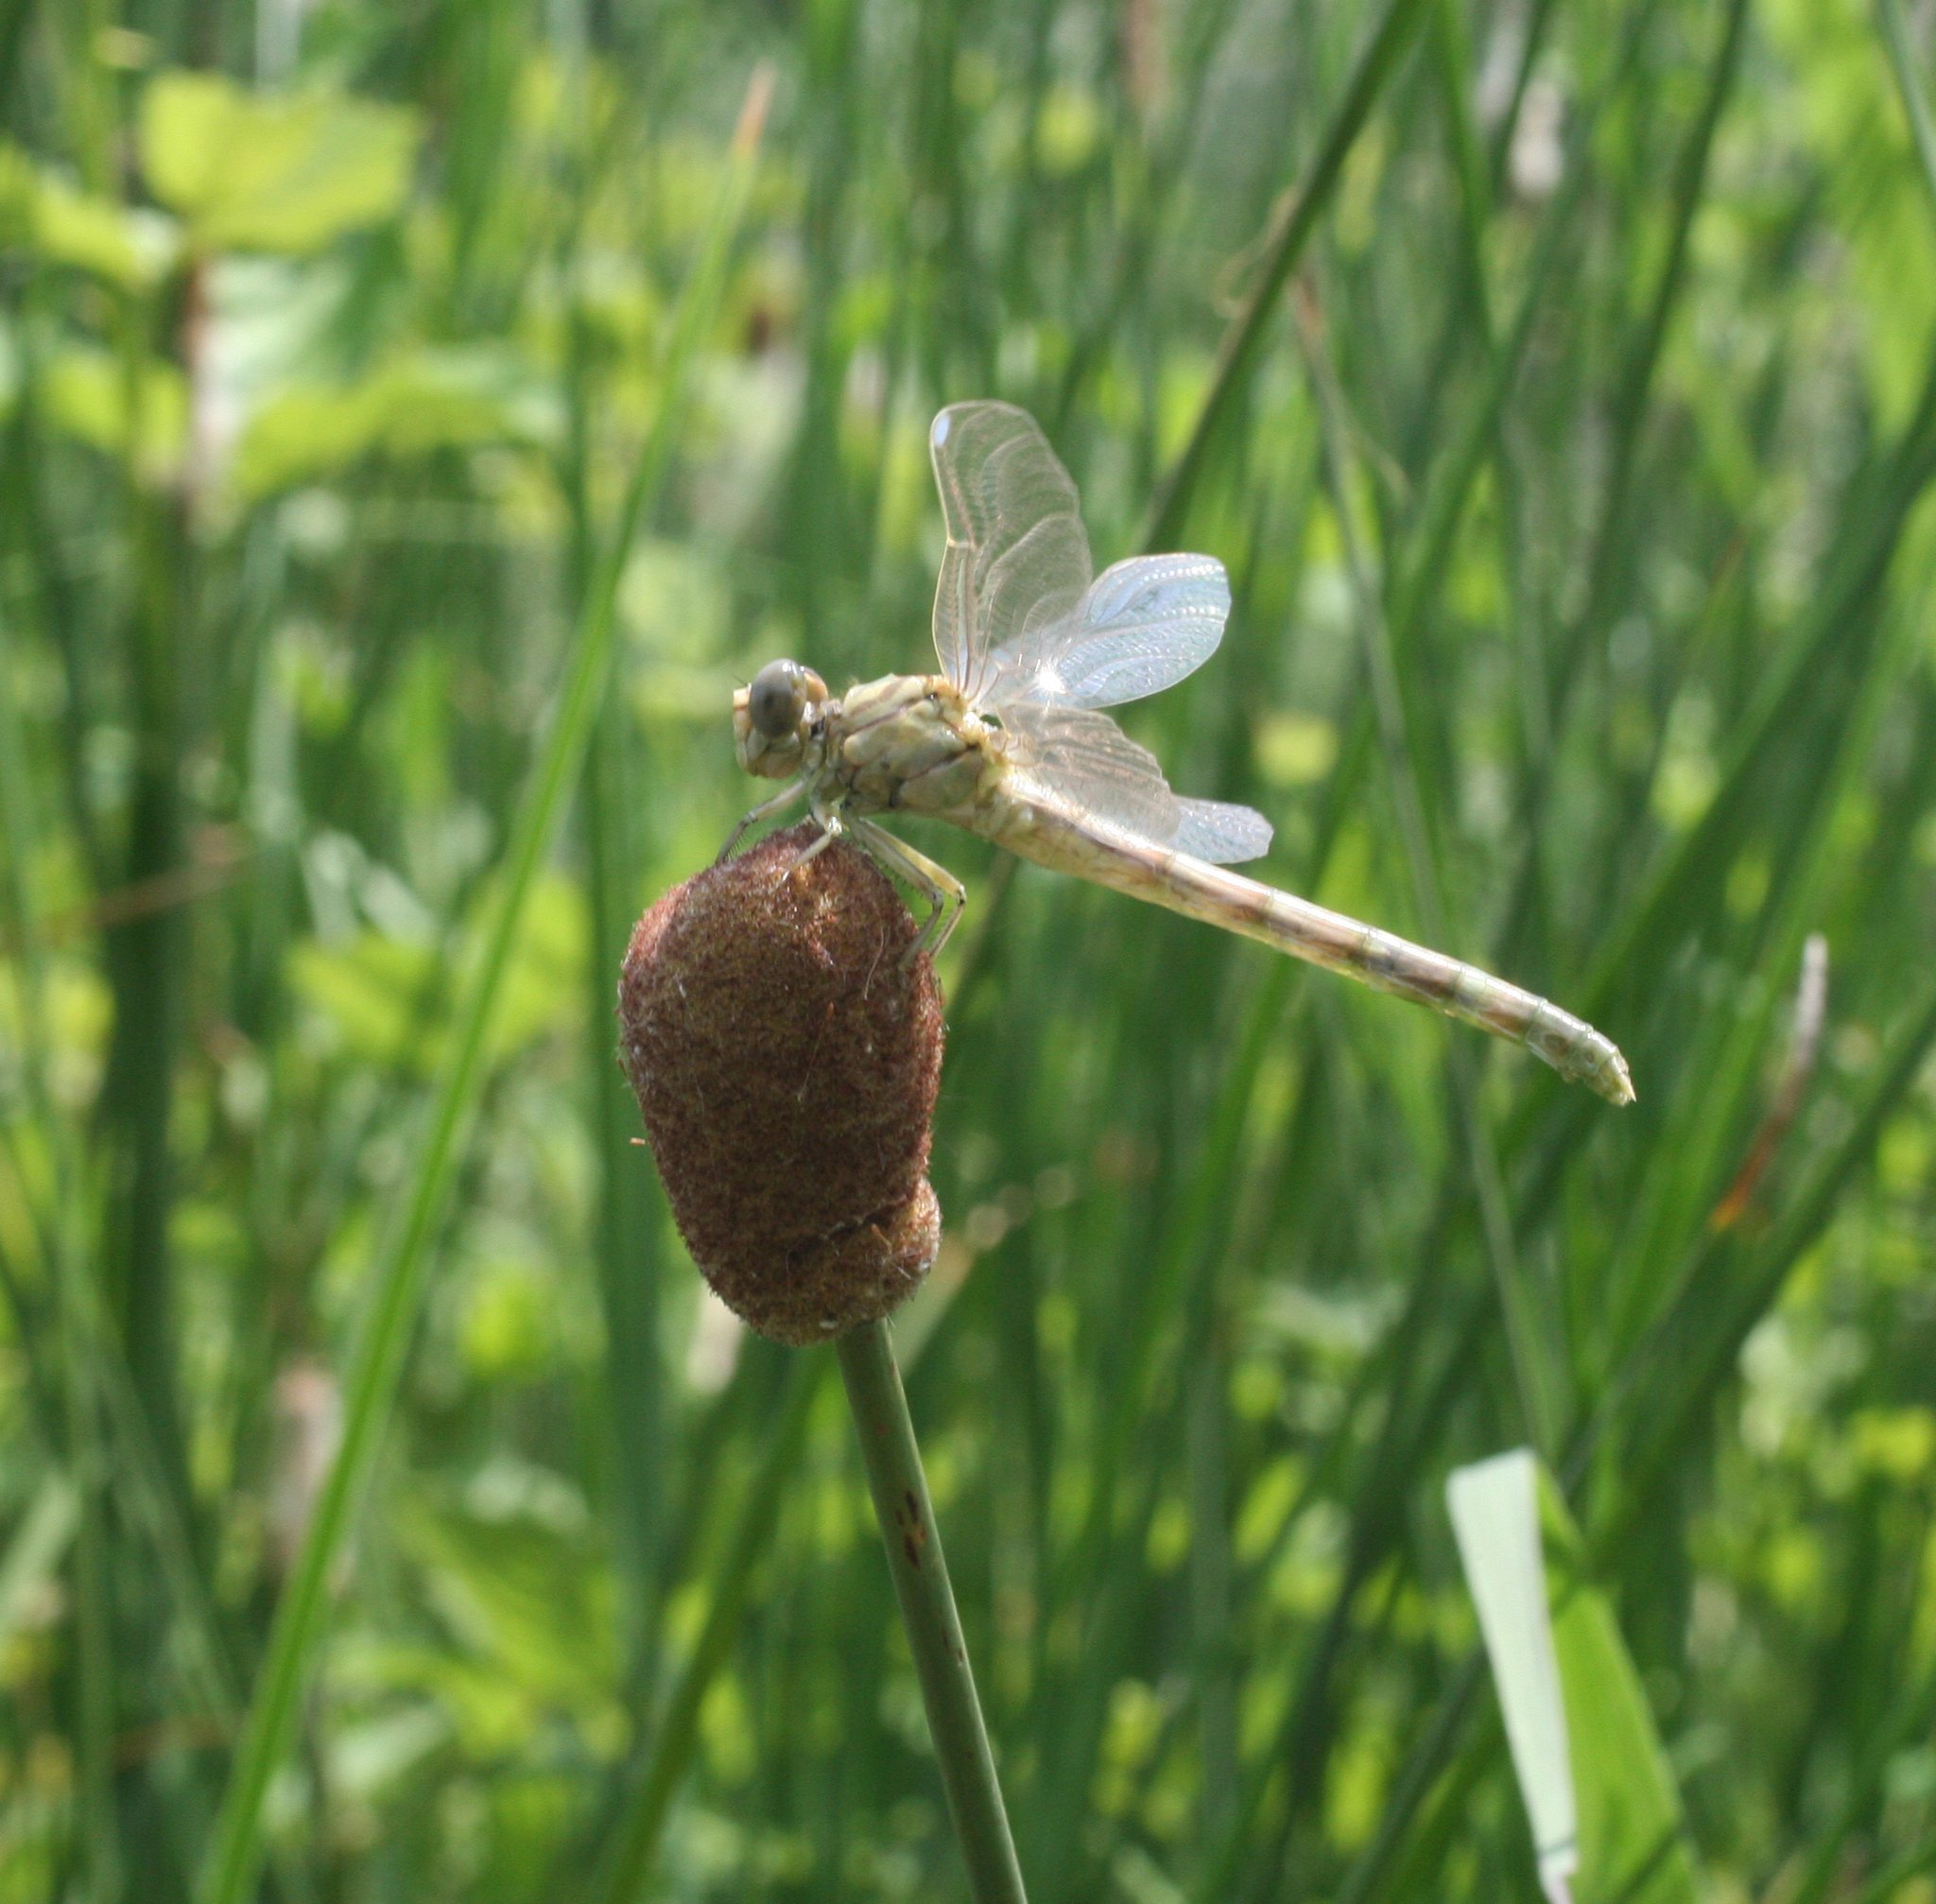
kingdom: Animalia
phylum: Arthropoda
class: Insecta
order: Odonata
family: Gomphidae
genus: Onychogomphus
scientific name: Onychogomphus forcipatus
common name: Small pincertail
